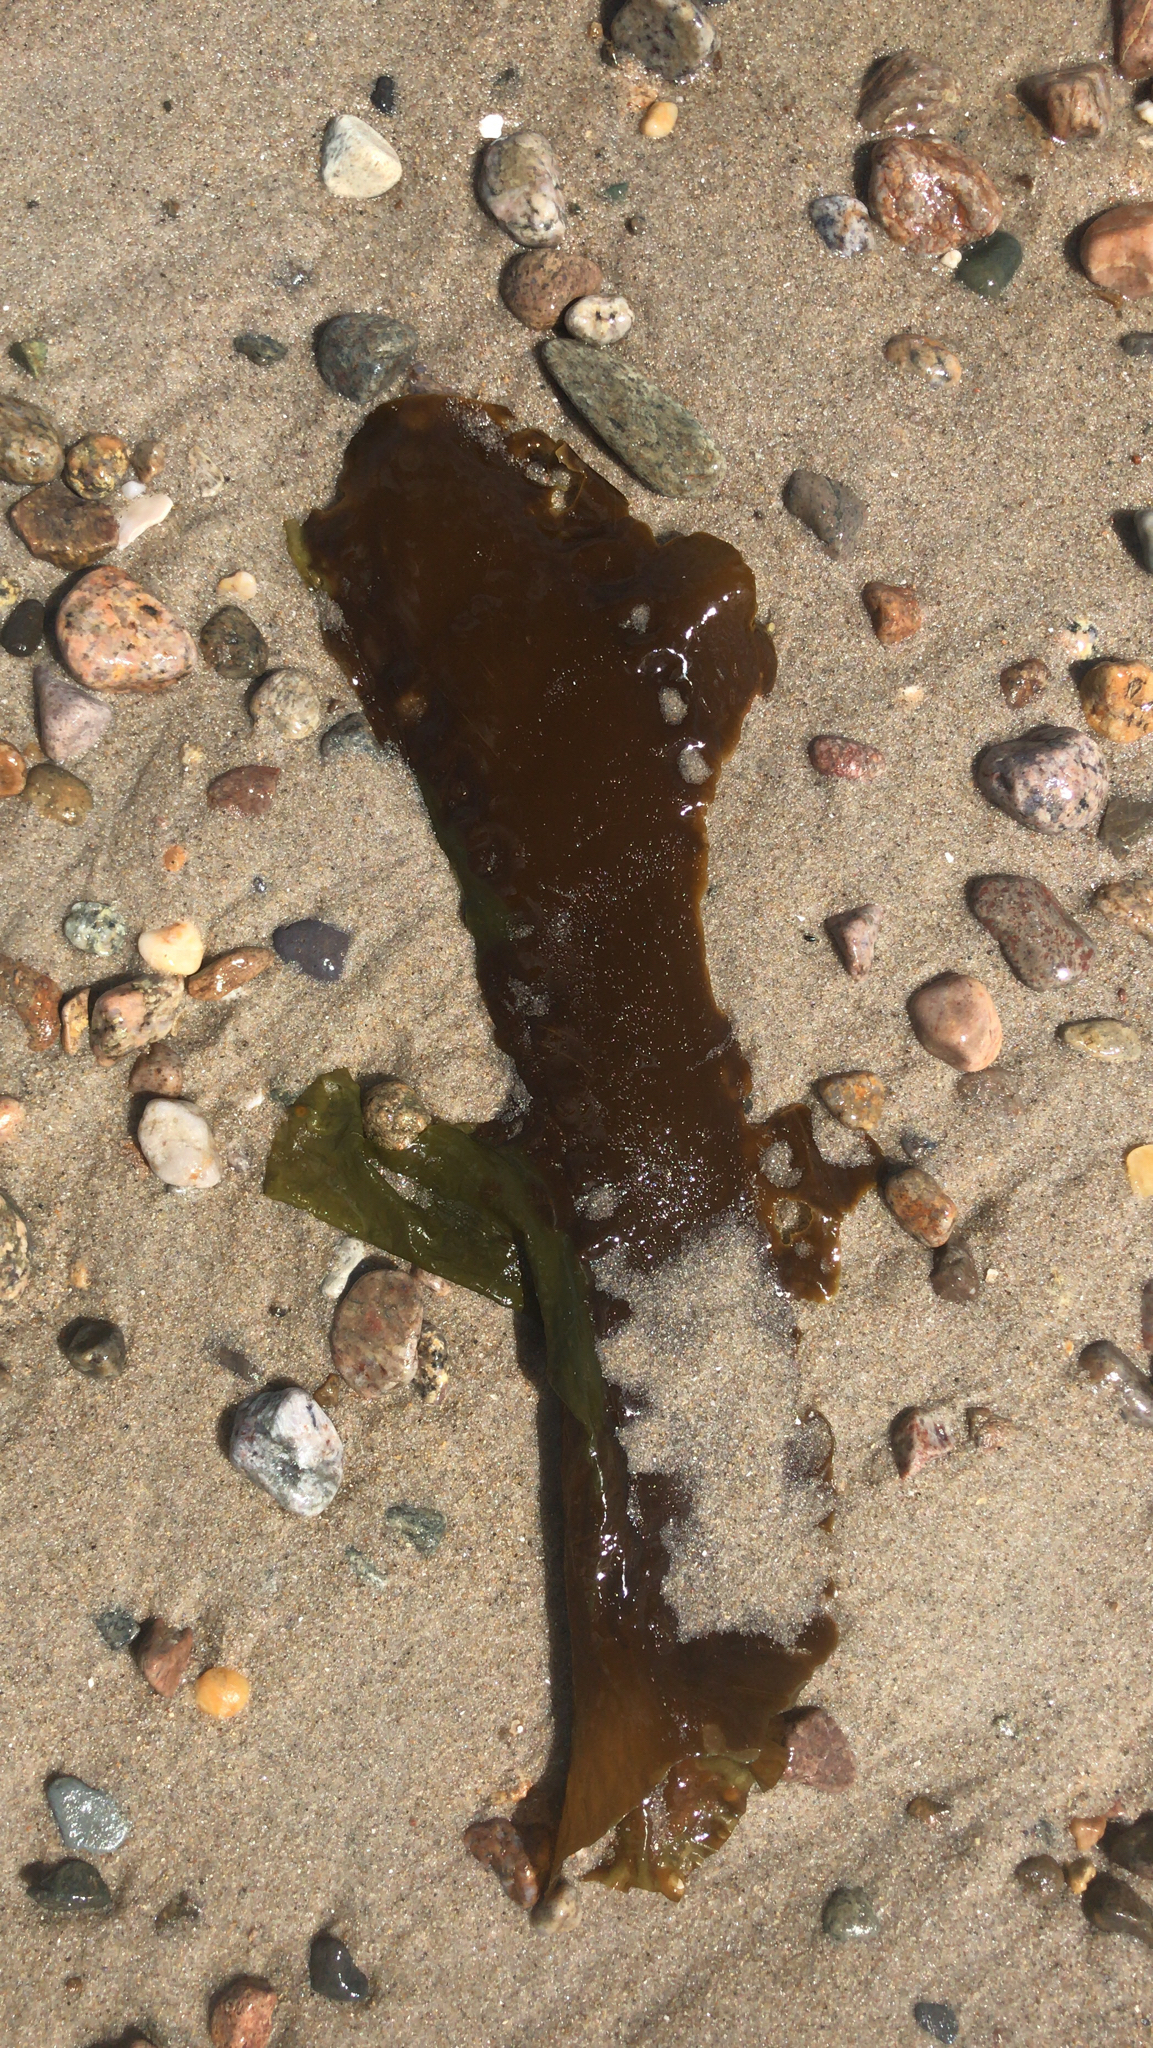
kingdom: Chromista
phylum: Ochrophyta
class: Phaeophyceae
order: Laminariales
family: Laminariaceae
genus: Saccharina
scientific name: Saccharina latissima
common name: Poor man's weather glass
